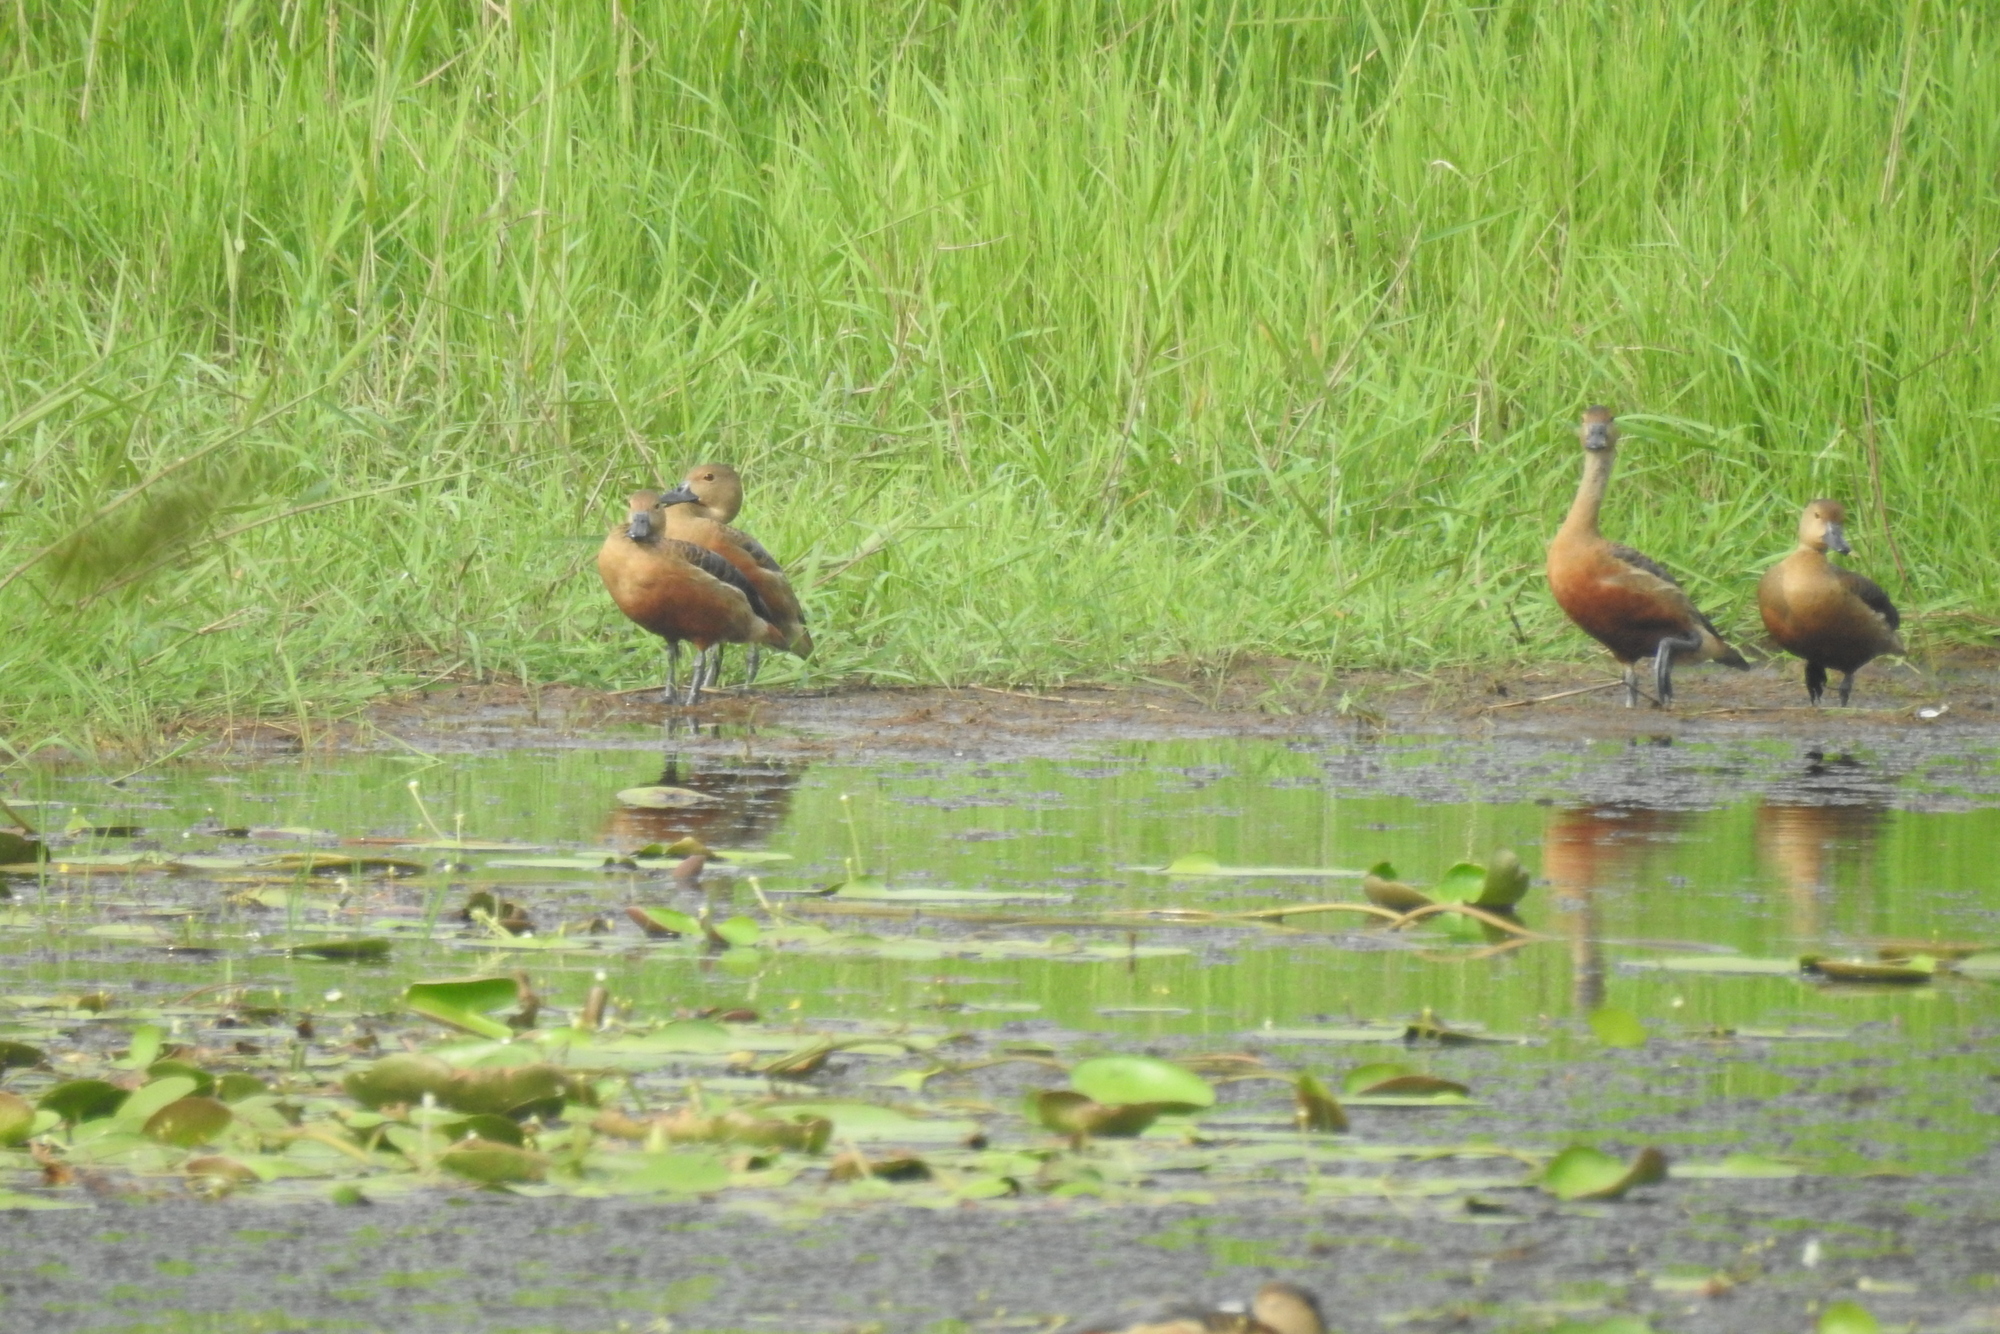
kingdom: Animalia
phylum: Chordata
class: Aves
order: Anseriformes
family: Anatidae
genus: Dendrocygna
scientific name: Dendrocygna javanica
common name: Lesser whistling-duck
